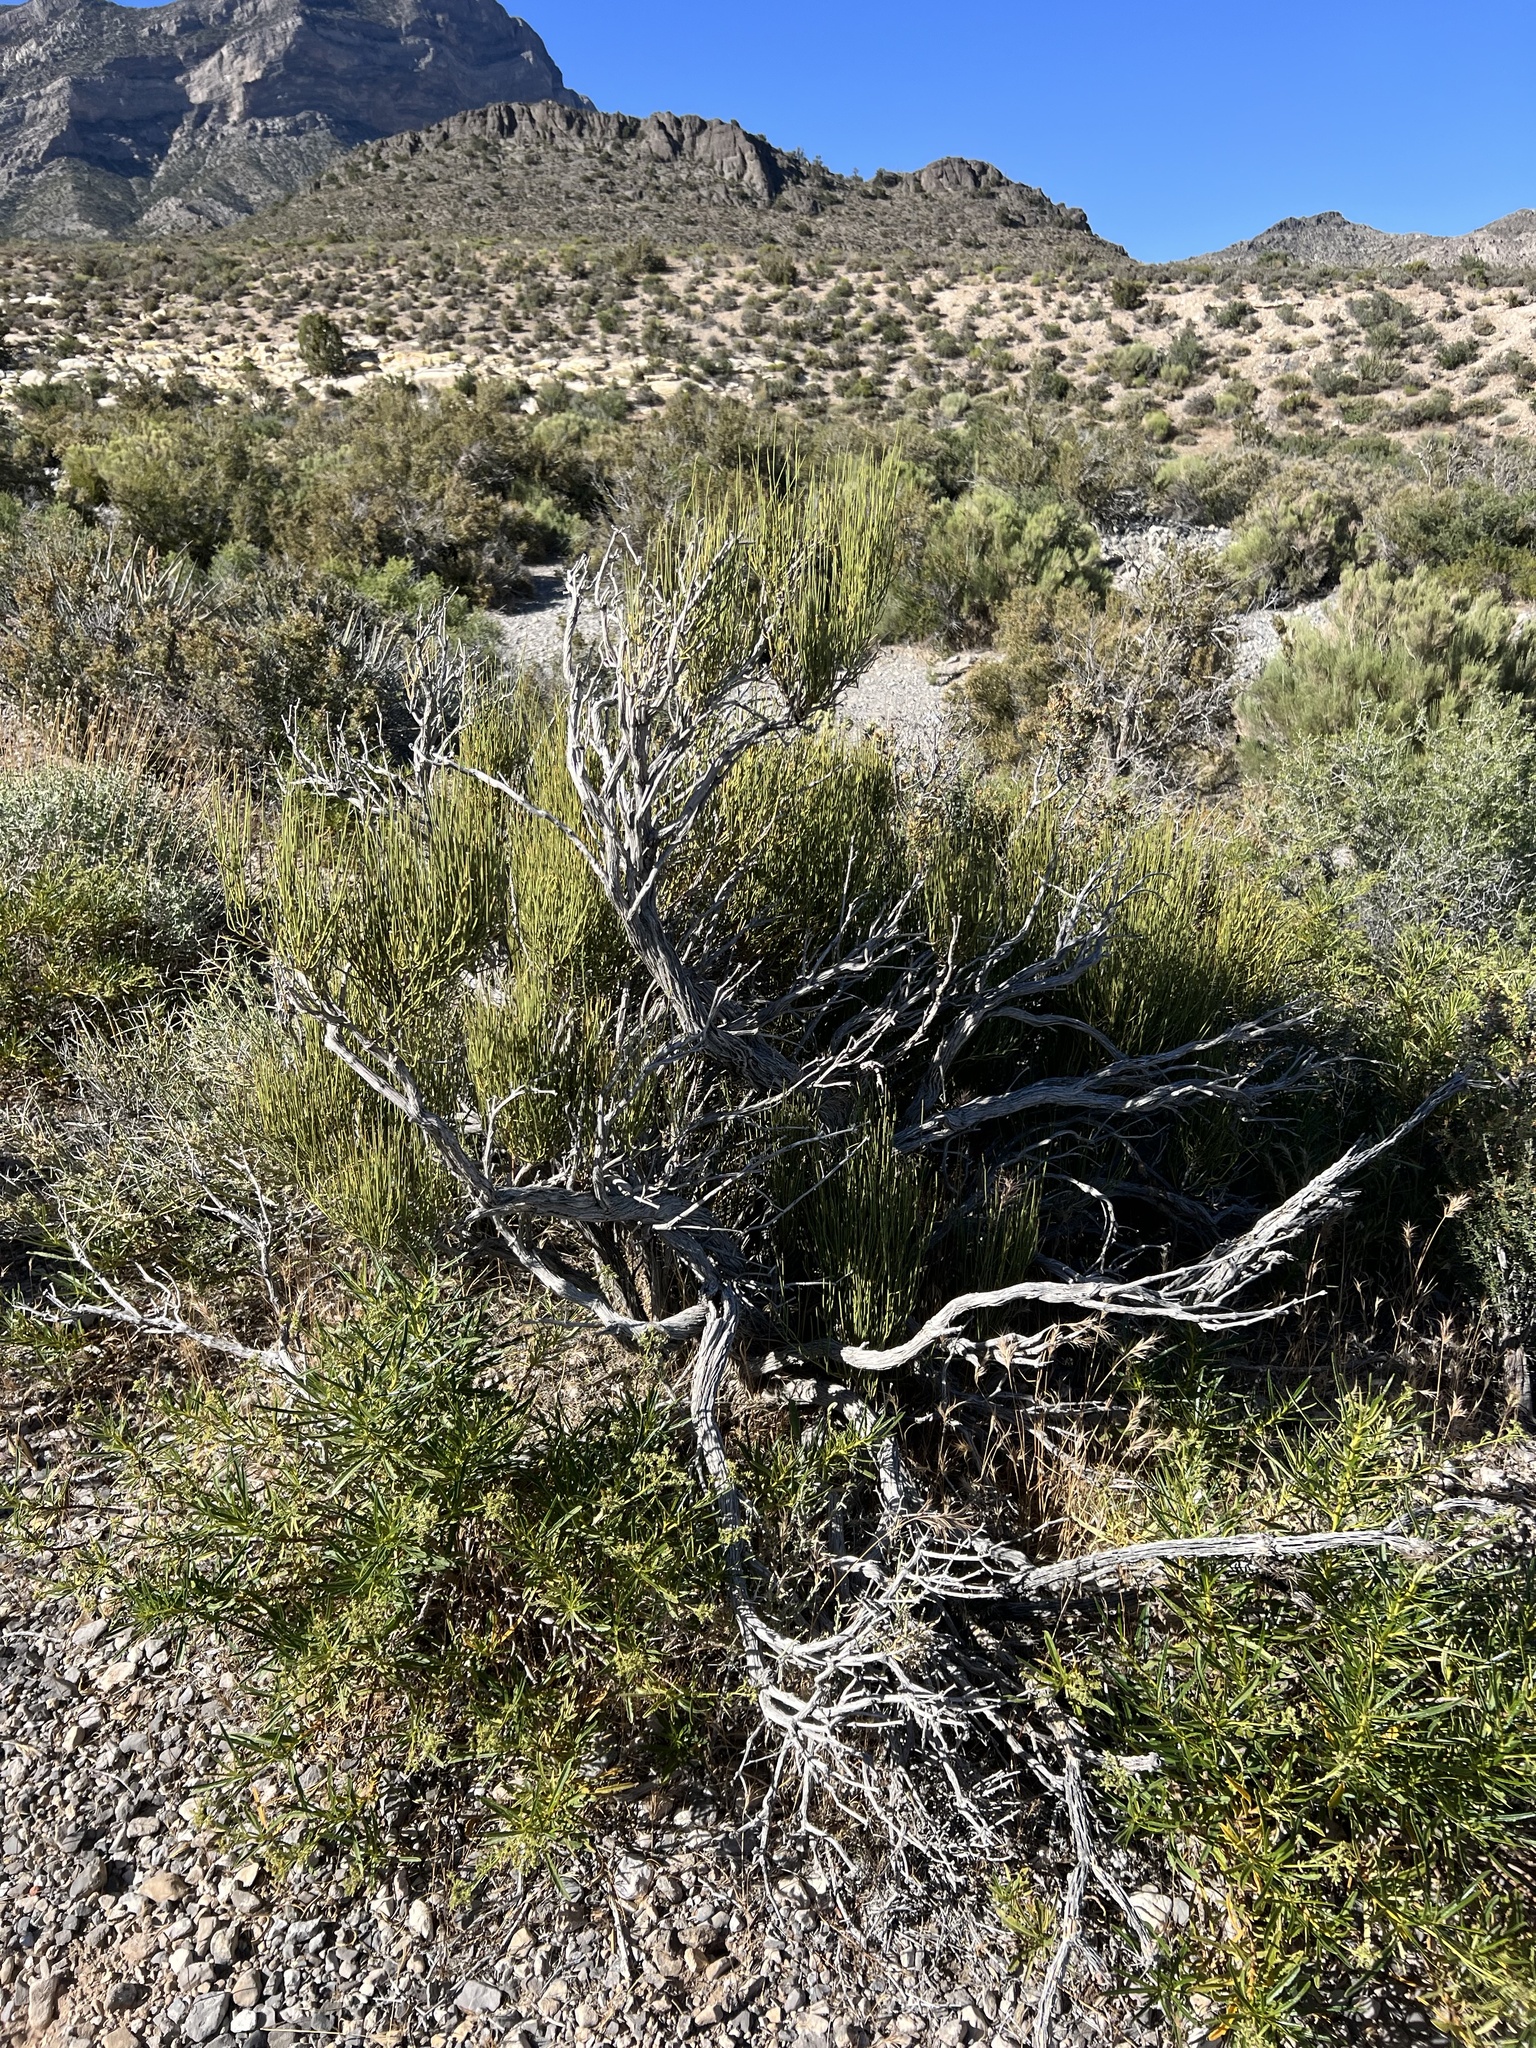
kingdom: Plantae
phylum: Tracheophyta
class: Gnetopsida
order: Ephedrales
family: Ephedraceae
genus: Ephedra
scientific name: Ephedra viridis
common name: Green ephedra
